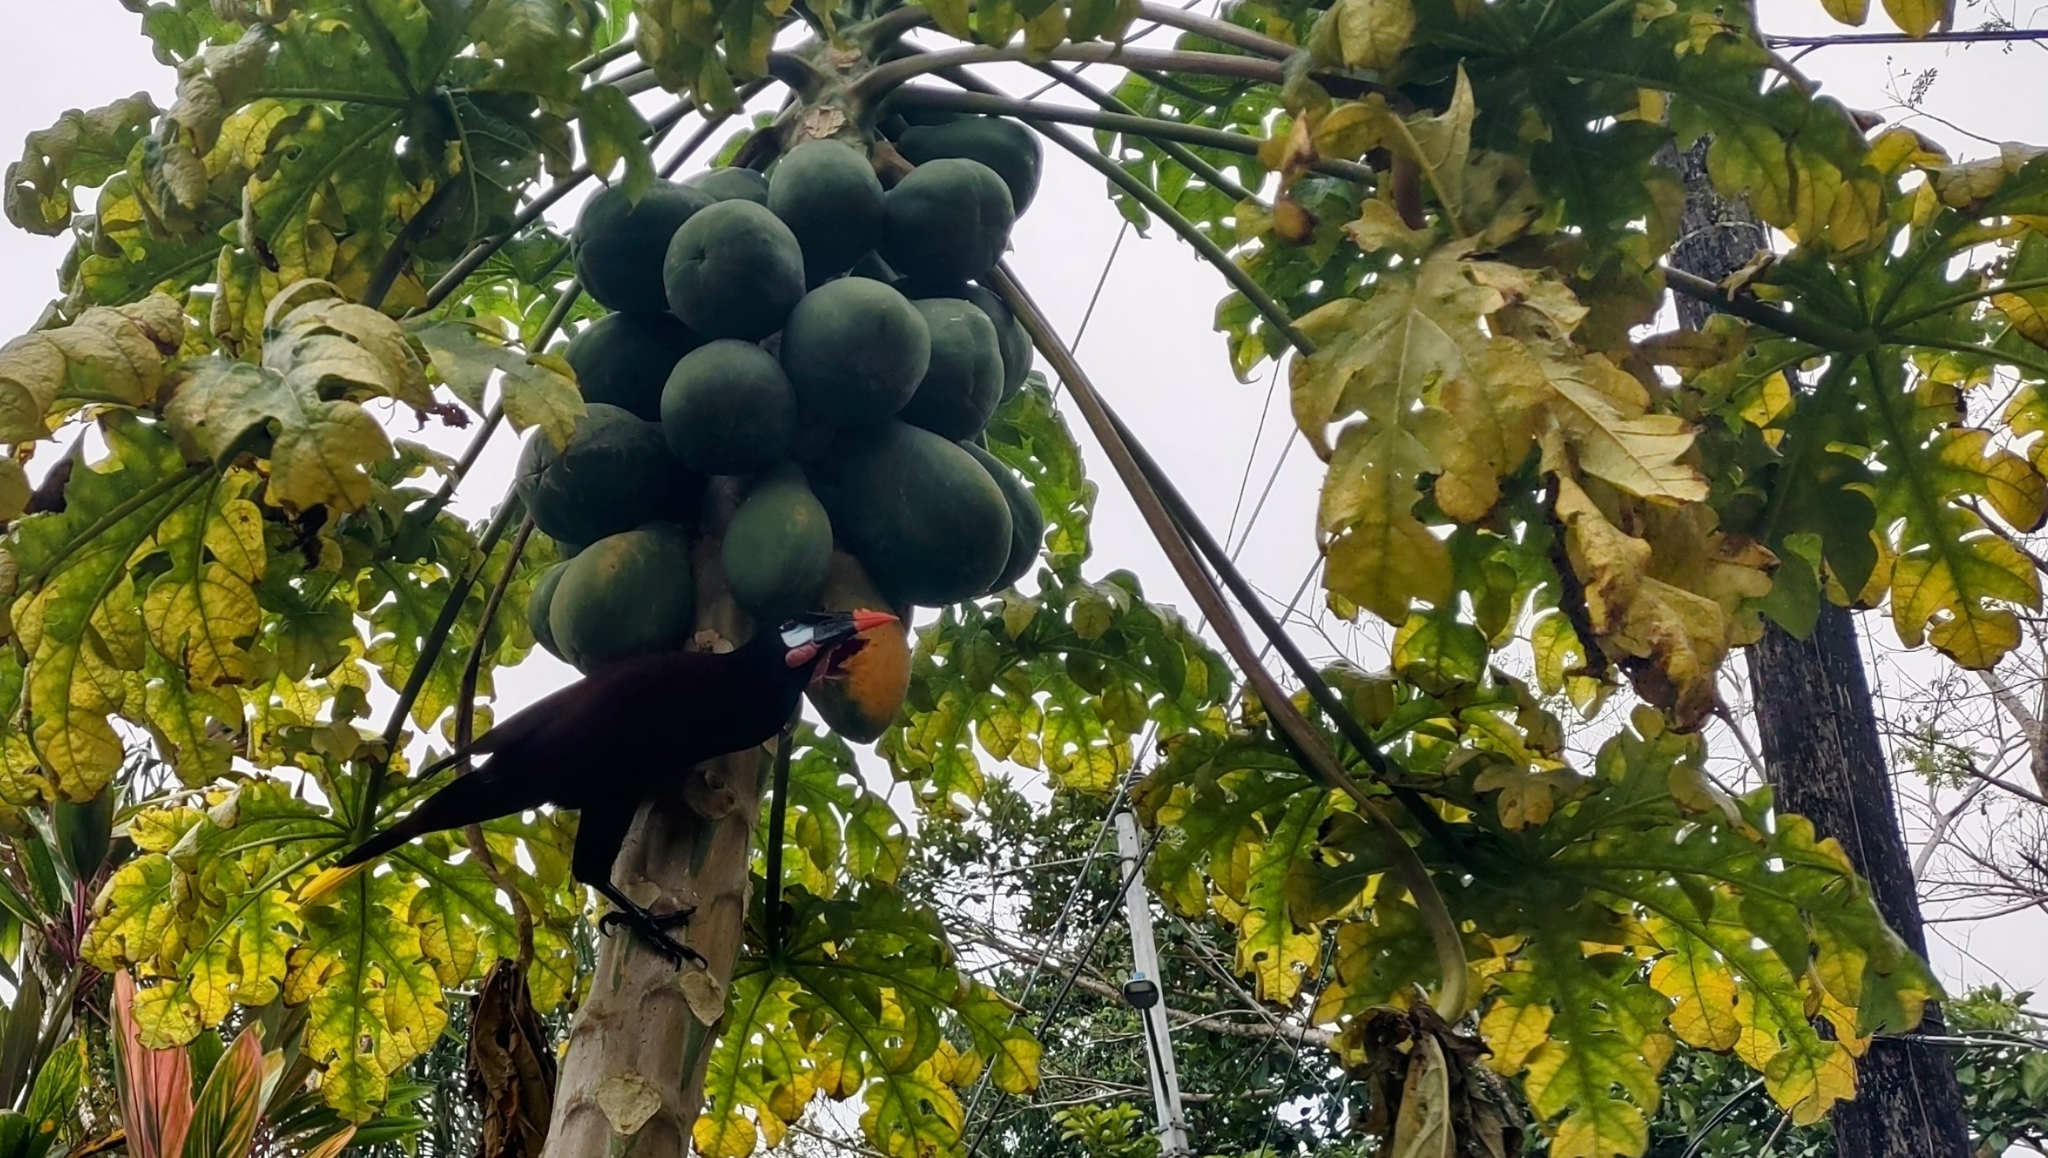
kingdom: Animalia
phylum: Chordata
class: Aves
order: Passeriformes
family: Icteridae
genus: Psarocolius
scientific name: Psarocolius montezuma
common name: Montezuma oropendola
